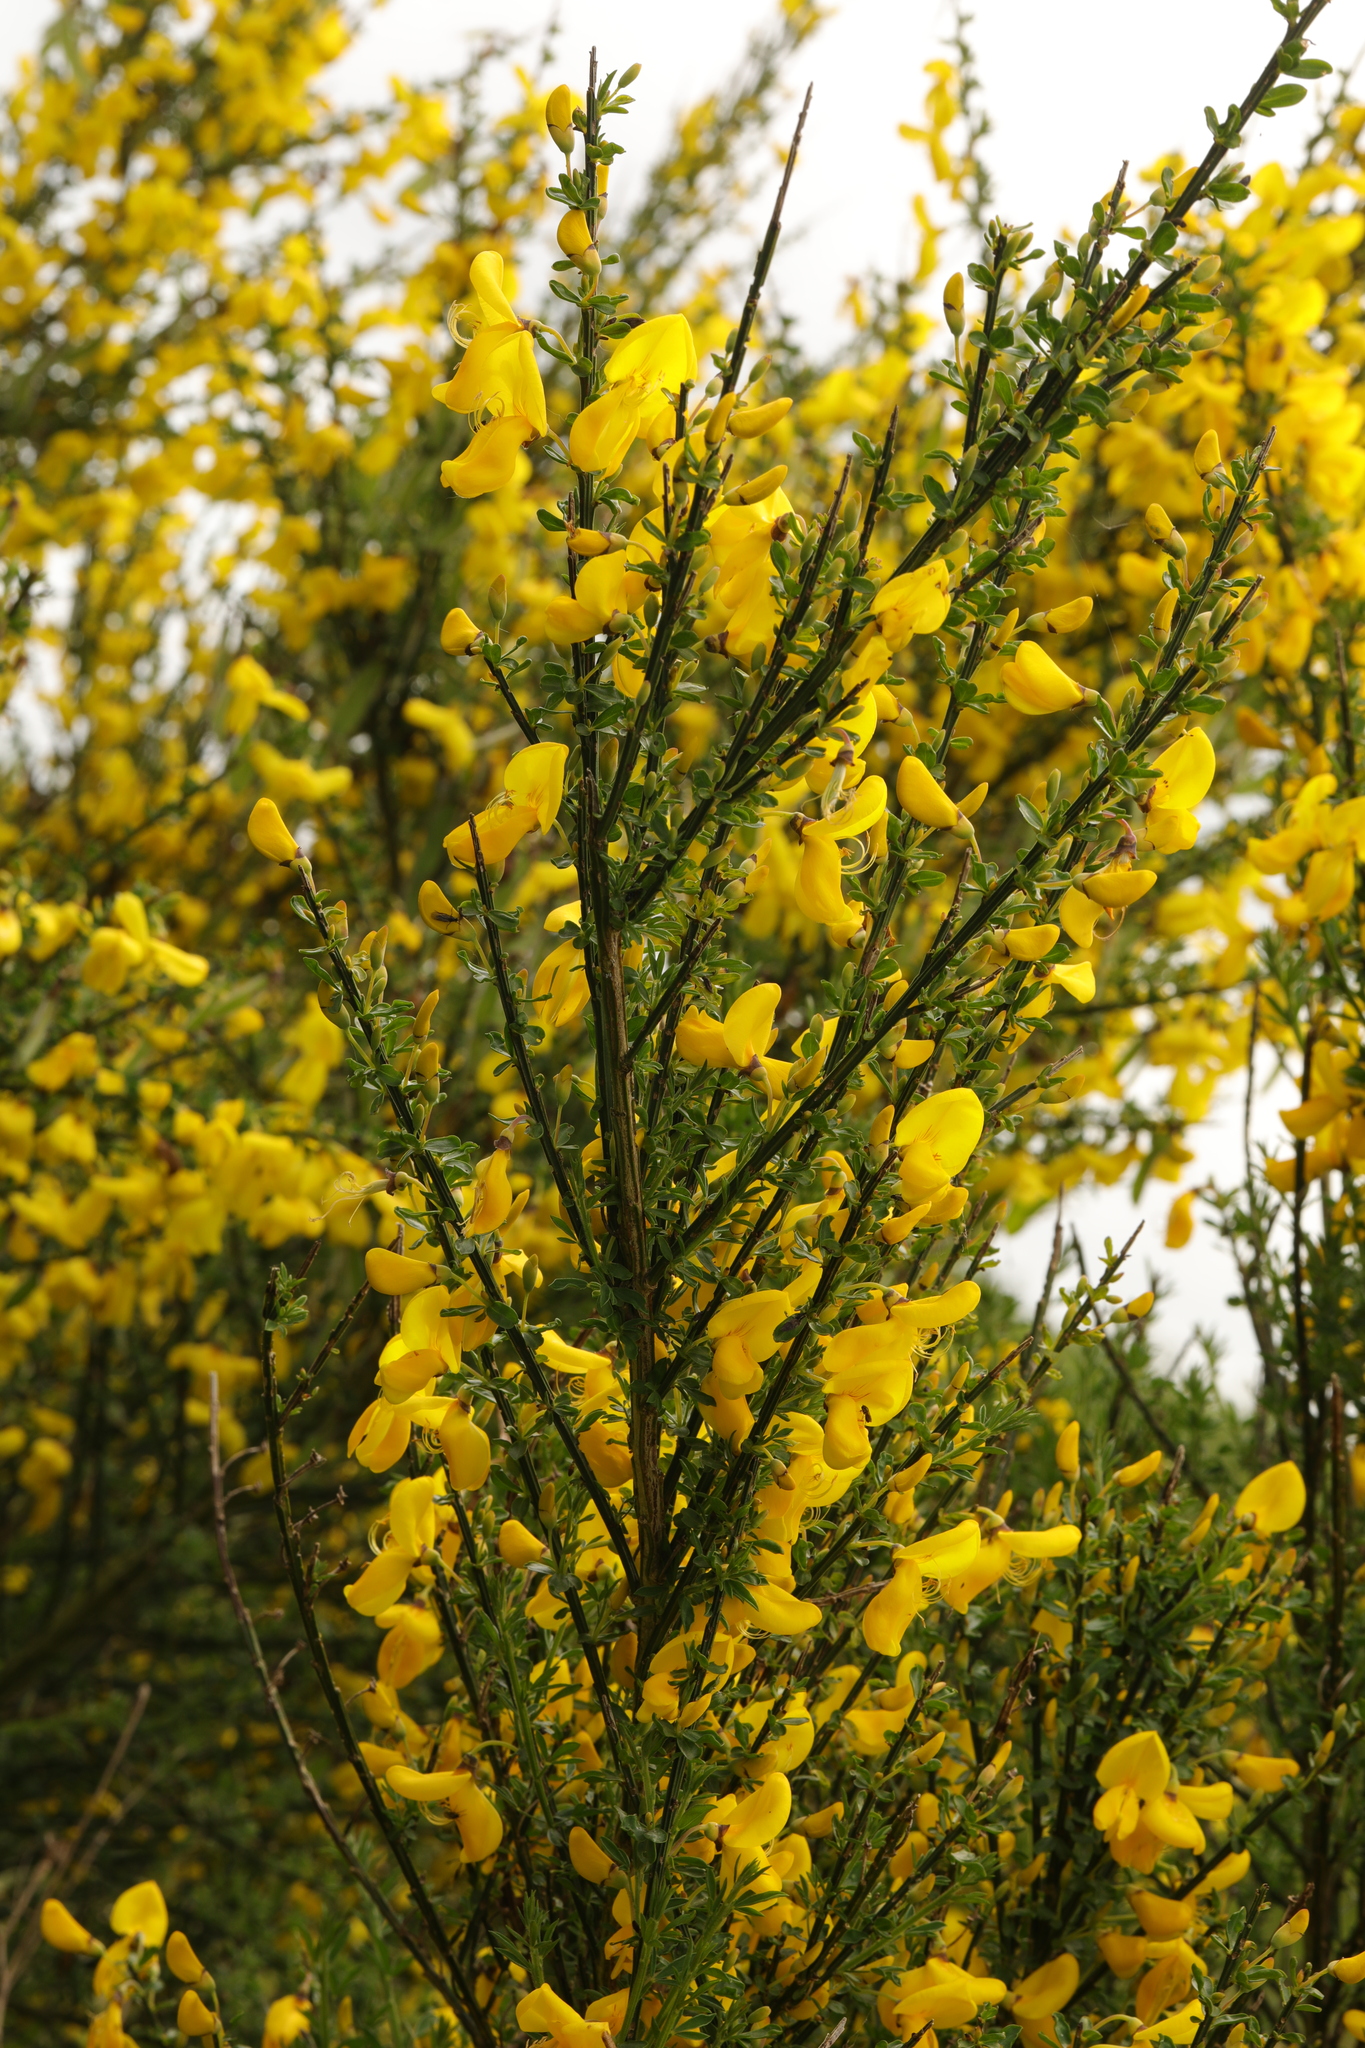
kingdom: Plantae
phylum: Tracheophyta
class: Magnoliopsida
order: Fabales
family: Fabaceae
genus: Cytisus
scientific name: Cytisus scoparius
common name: Scotch broom
